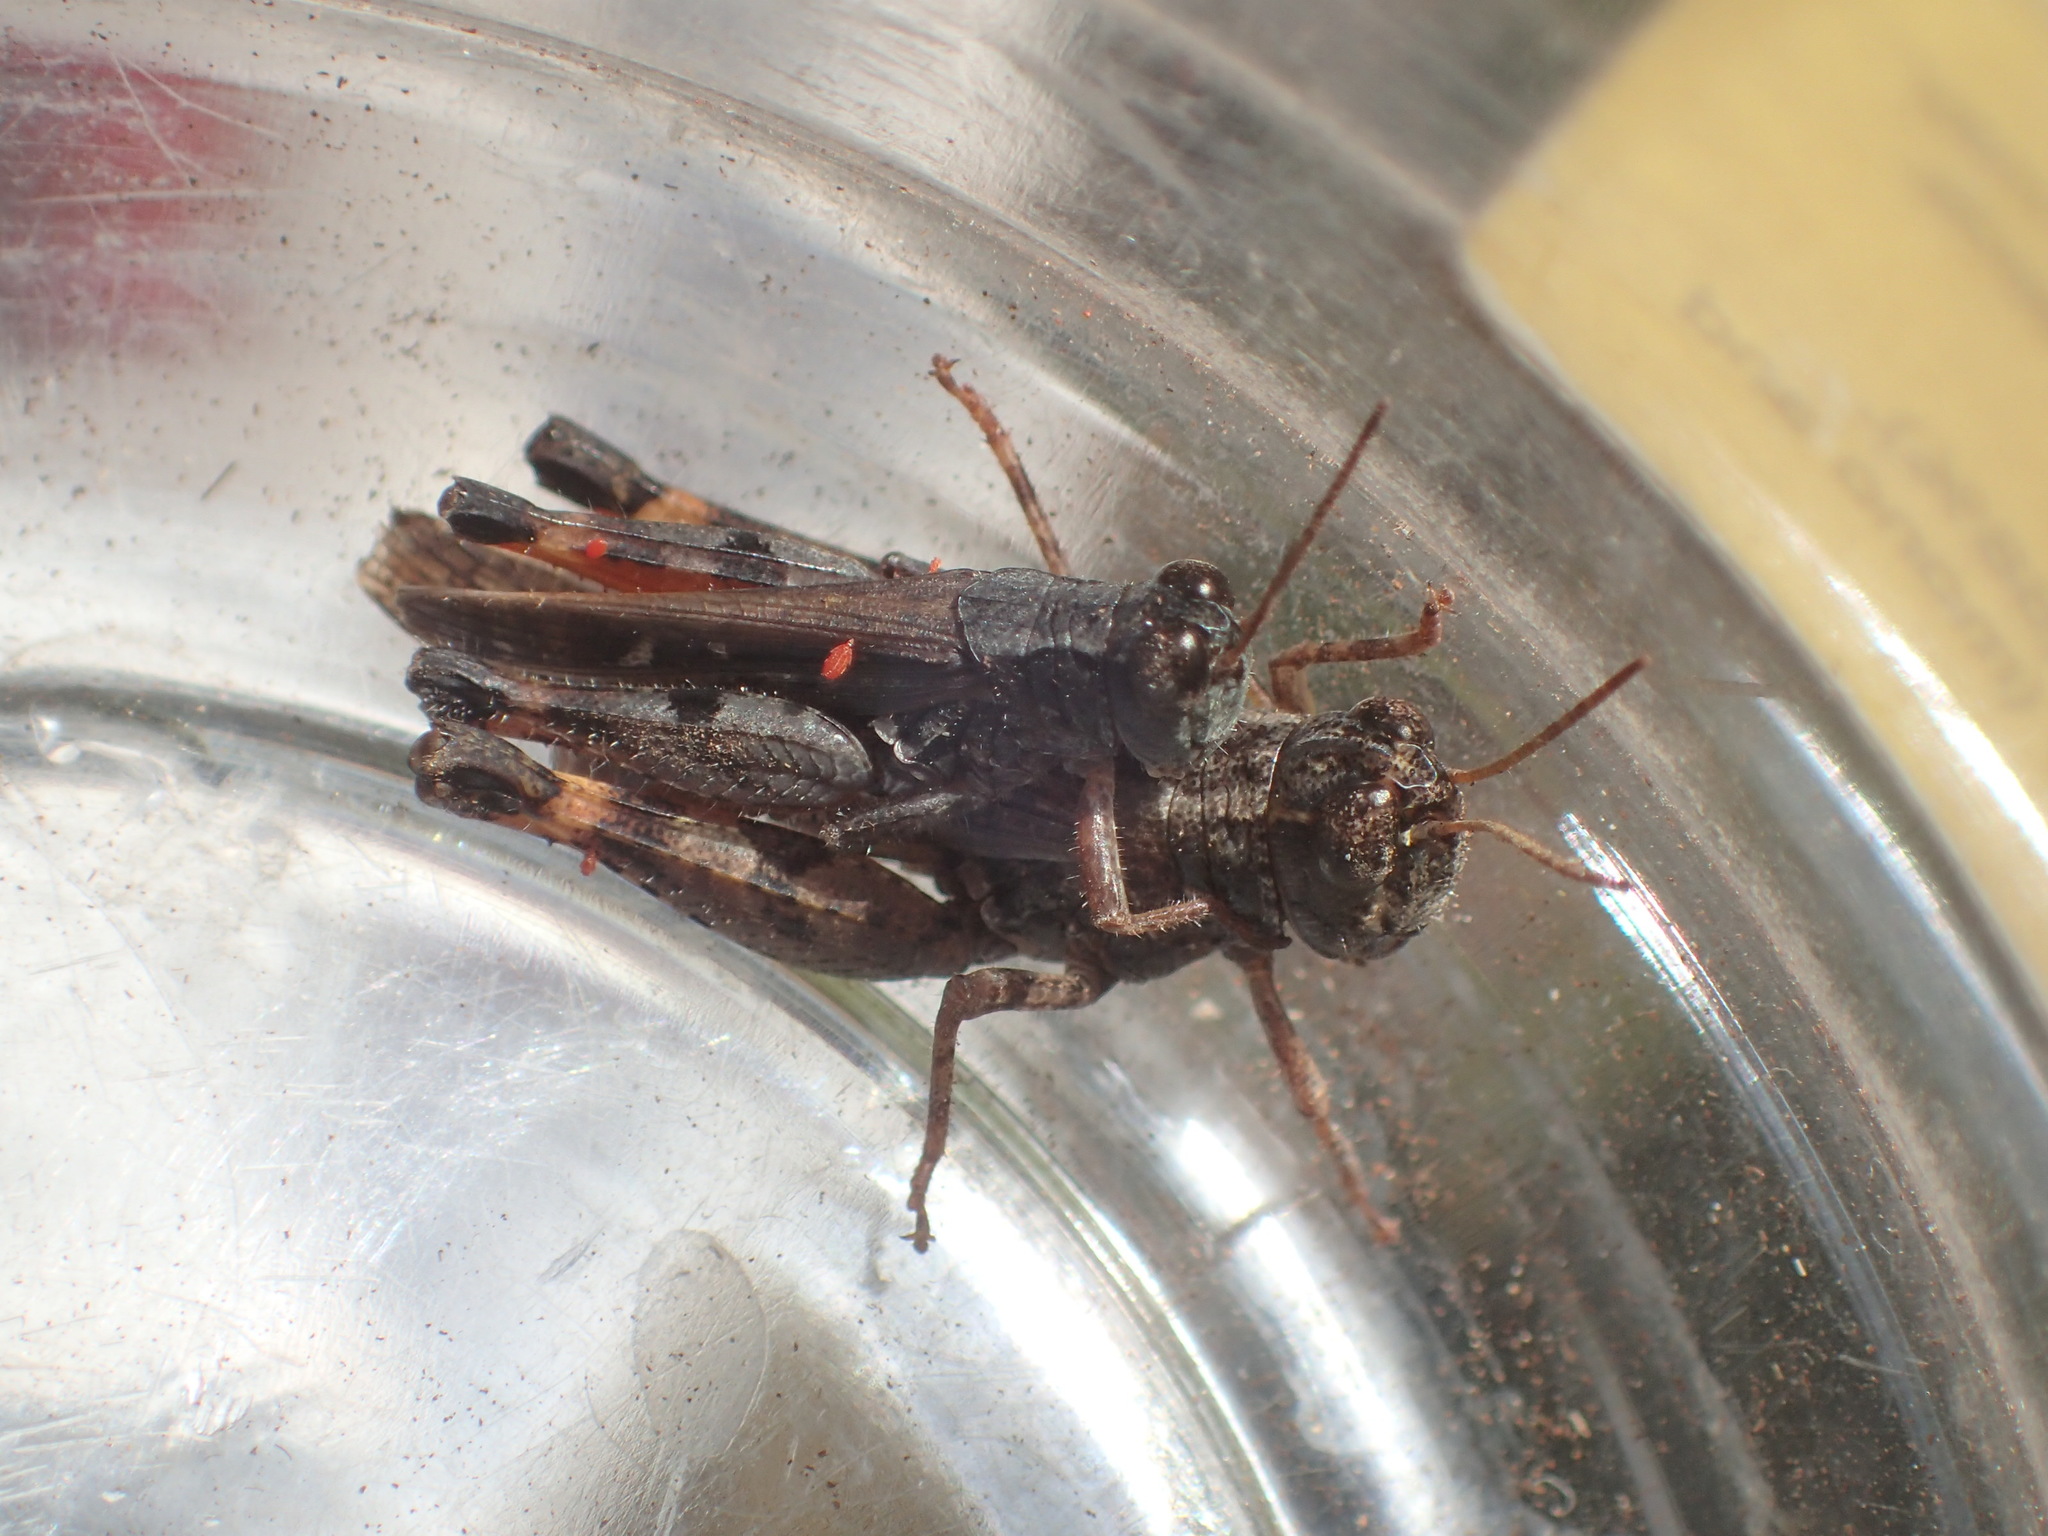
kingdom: Animalia
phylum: Arthropoda
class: Insecta
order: Orthoptera
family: Acrididae
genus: Exarna
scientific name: Exarna includens
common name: Red-legged exarna
